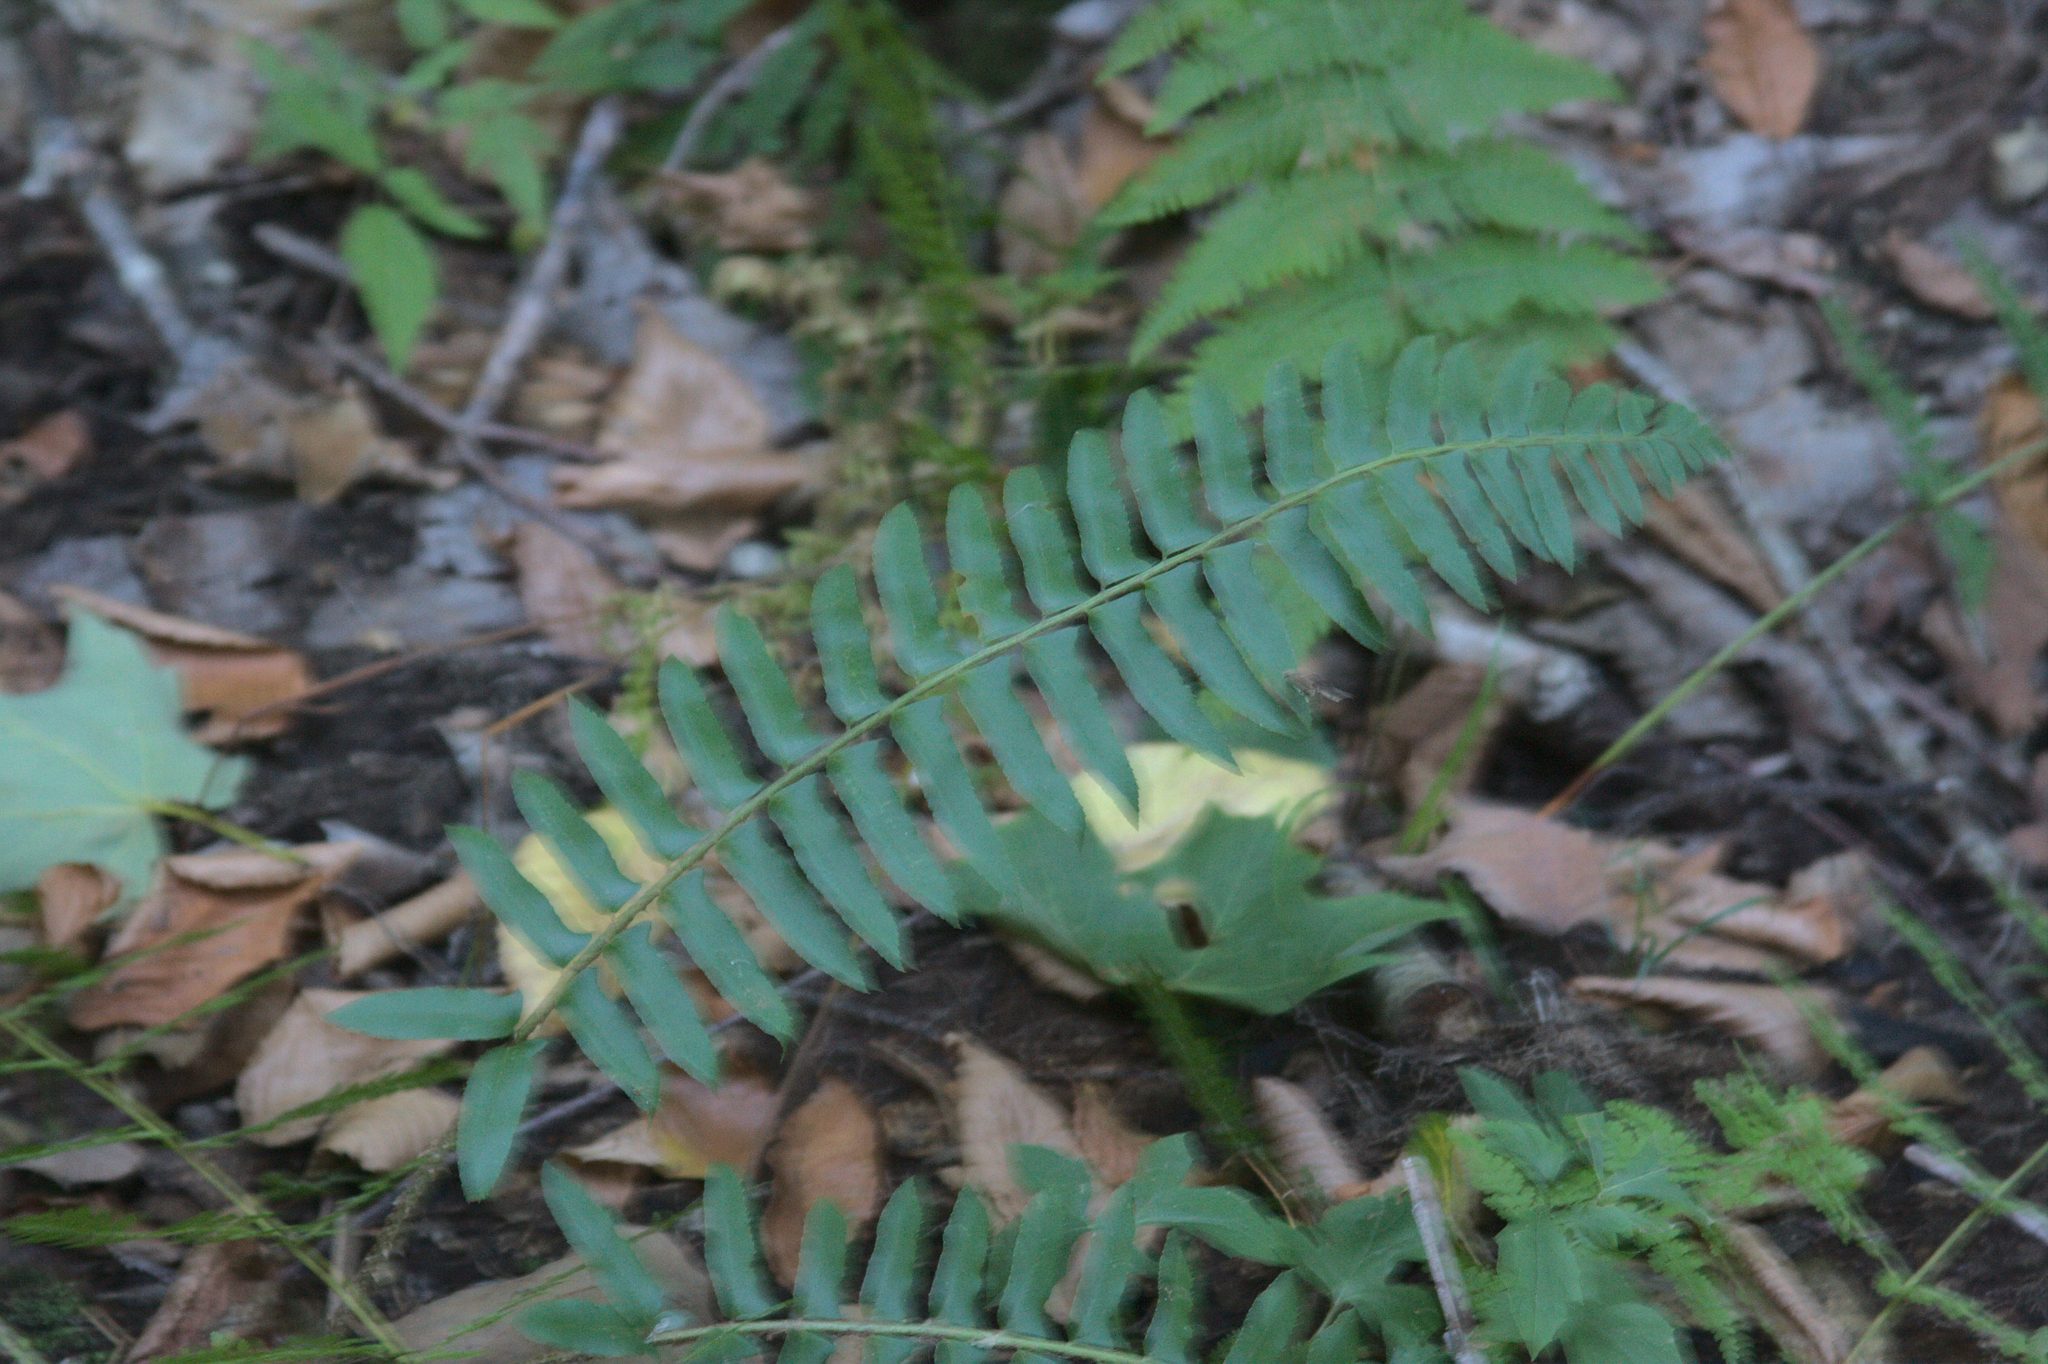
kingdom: Plantae
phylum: Tracheophyta
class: Polypodiopsida
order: Polypodiales
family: Dryopteridaceae
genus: Polystichum
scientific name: Polystichum acrostichoides
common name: Christmas fern
